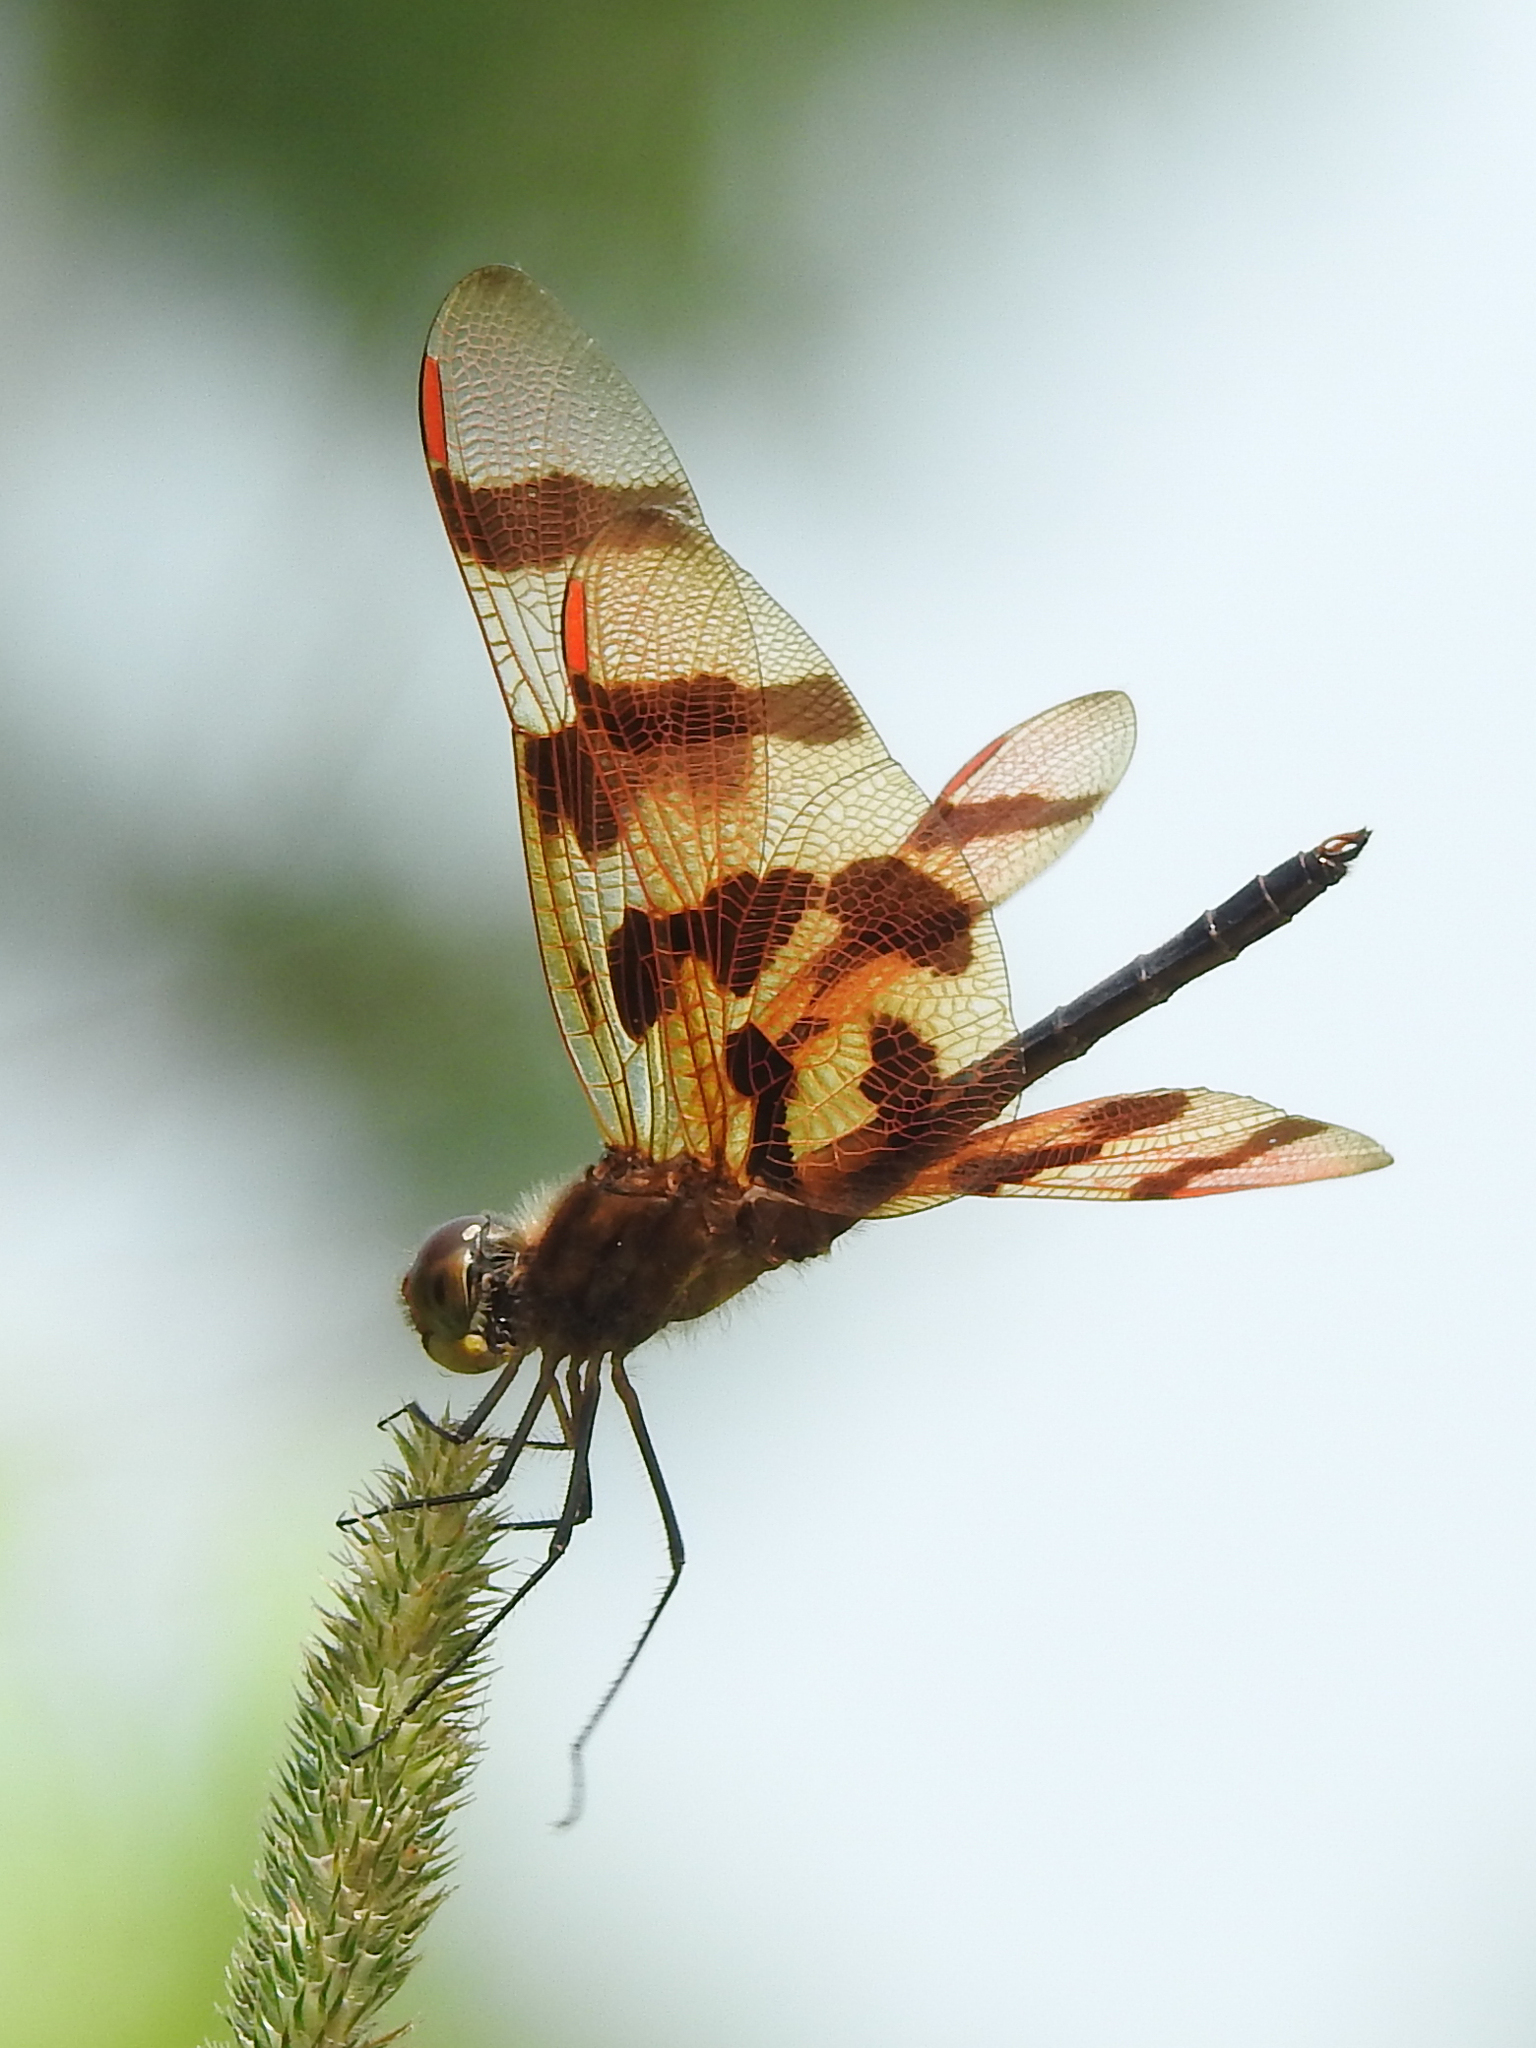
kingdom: Animalia
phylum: Arthropoda
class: Insecta
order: Odonata
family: Libellulidae
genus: Celithemis
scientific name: Celithemis eponina
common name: Halloween pennant
